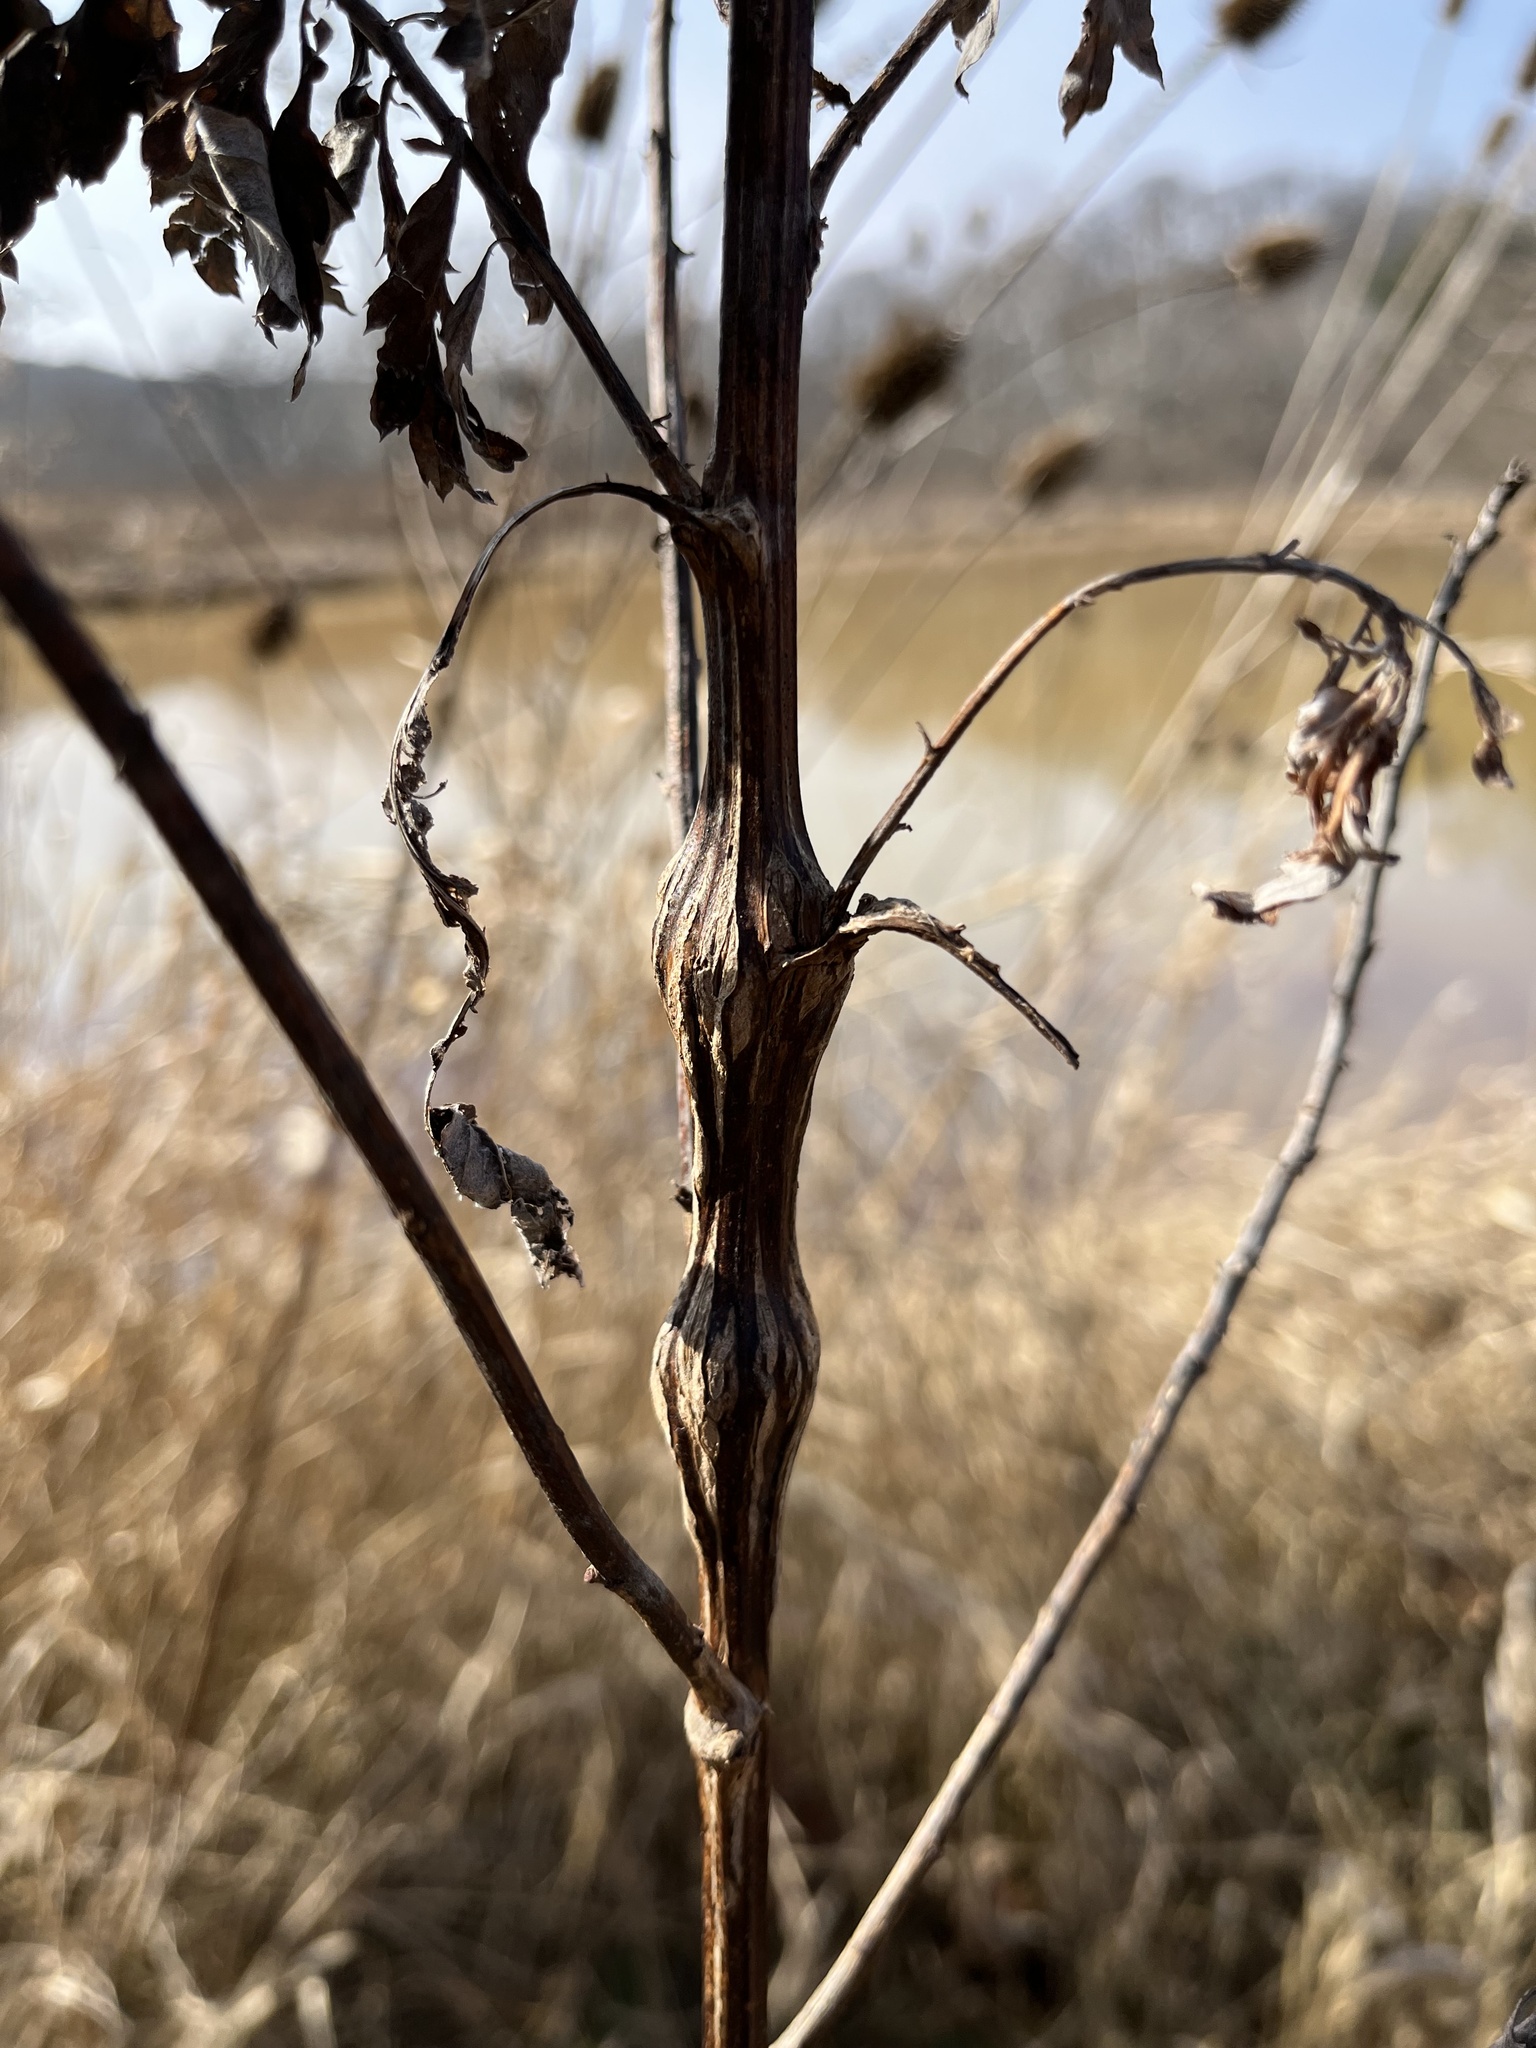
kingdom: Animalia
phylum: Arthropoda
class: Insecta
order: Diptera
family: Cecidomyiidae
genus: Neolasioptera
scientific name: Neolasioptera verbesinae
